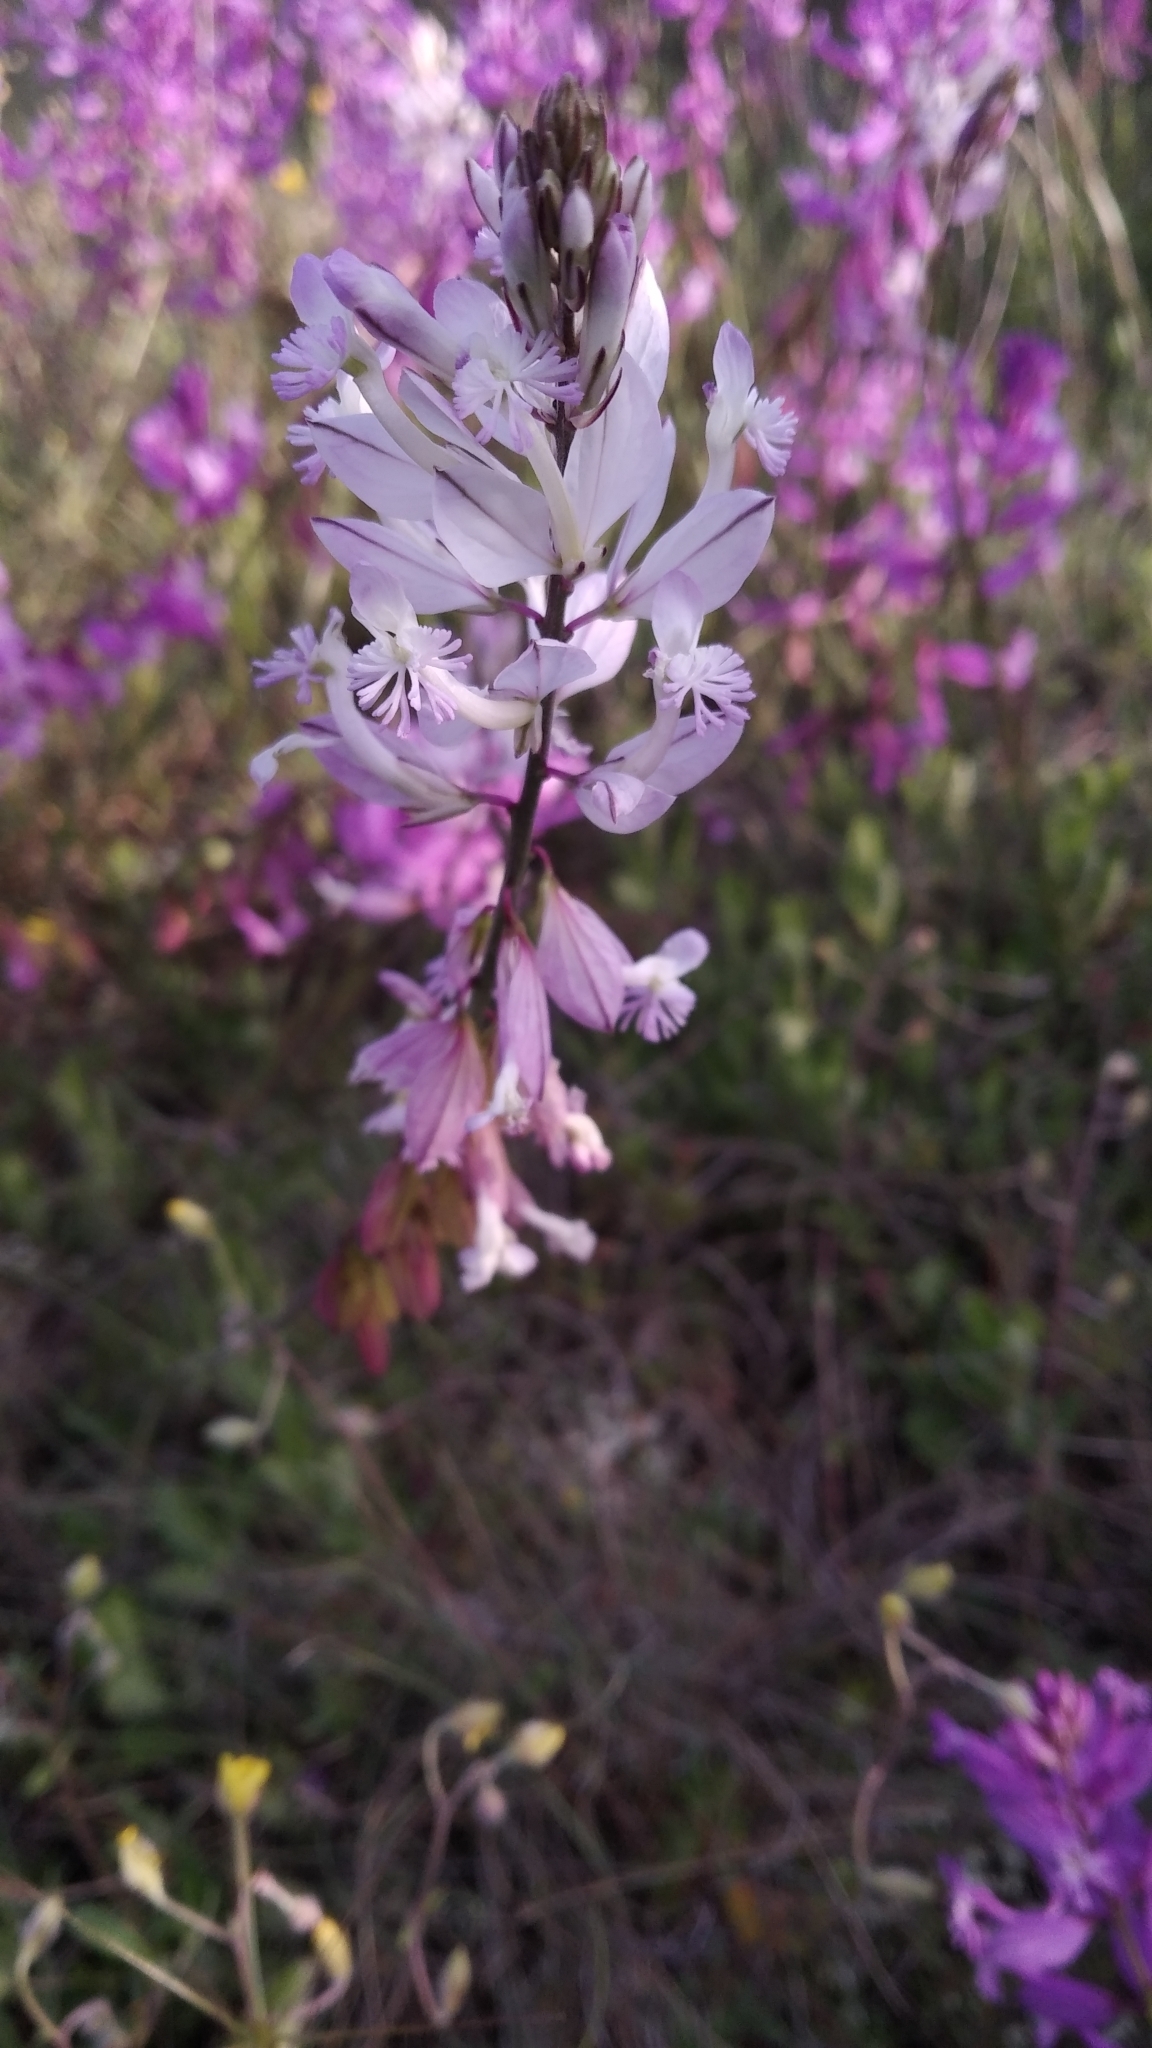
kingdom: Plantae
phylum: Tracheophyta
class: Magnoliopsida
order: Fabales
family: Polygalaceae
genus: Polygala
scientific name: Polygala major
